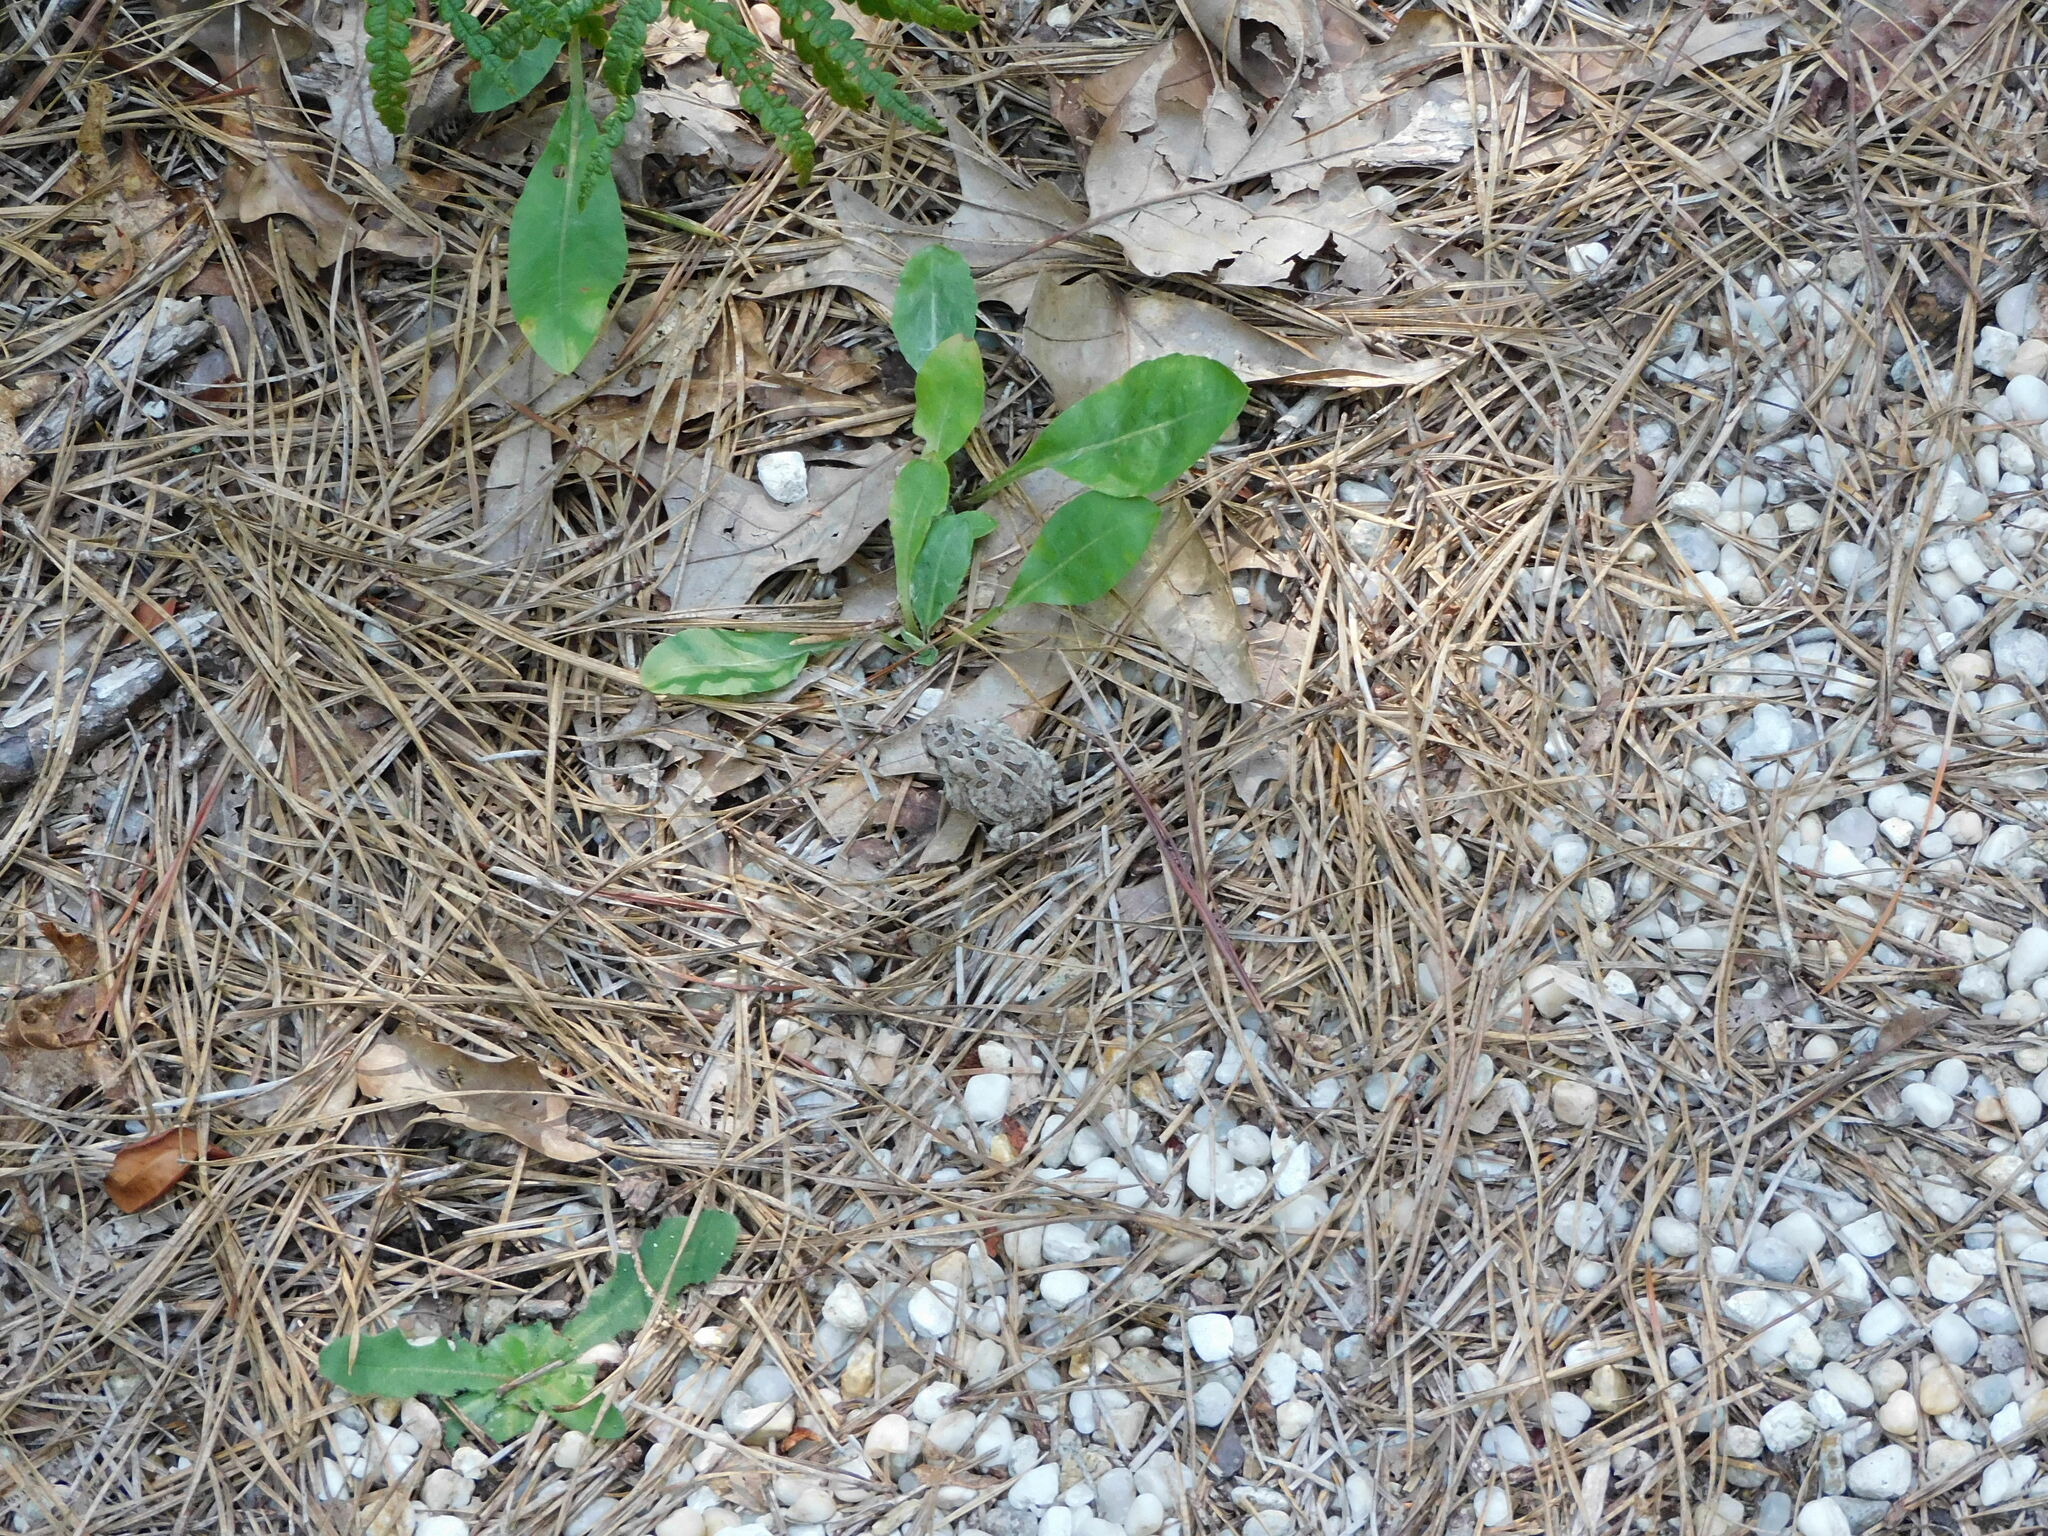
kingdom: Animalia
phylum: Chordata
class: Amphibia
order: Anura
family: Bufonidae
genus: Anaxyrus
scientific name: Anaxyrus fowleri
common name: Fowler's toad
